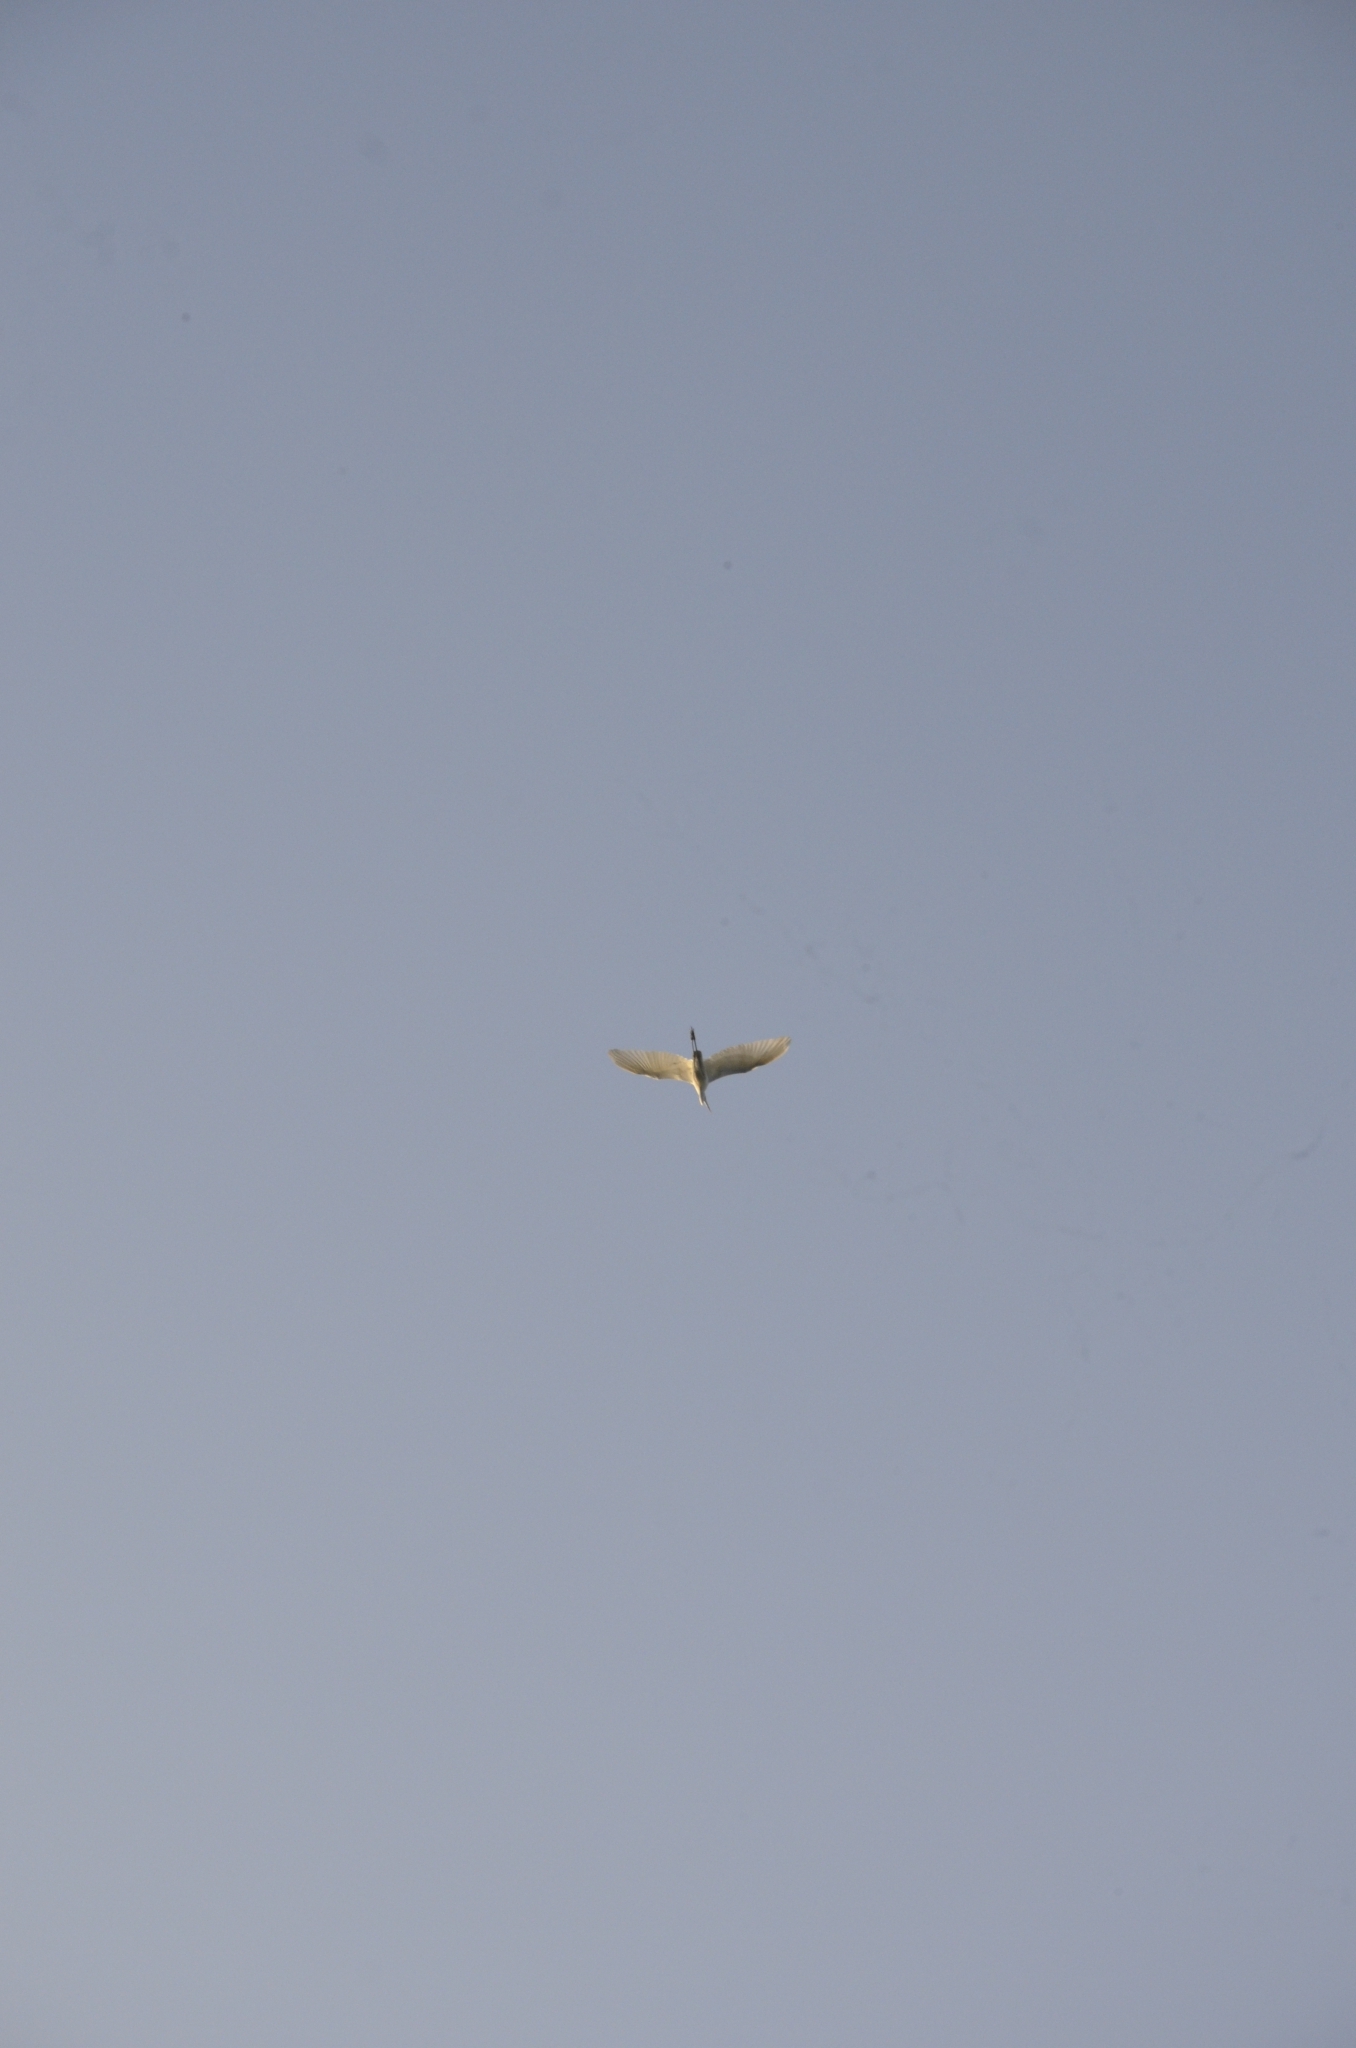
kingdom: Animalia
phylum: Chordata
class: Aves
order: Pelecaniformes
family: Ardeidae
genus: Egretta
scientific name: Egretta intermedia
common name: Intermediate egret
